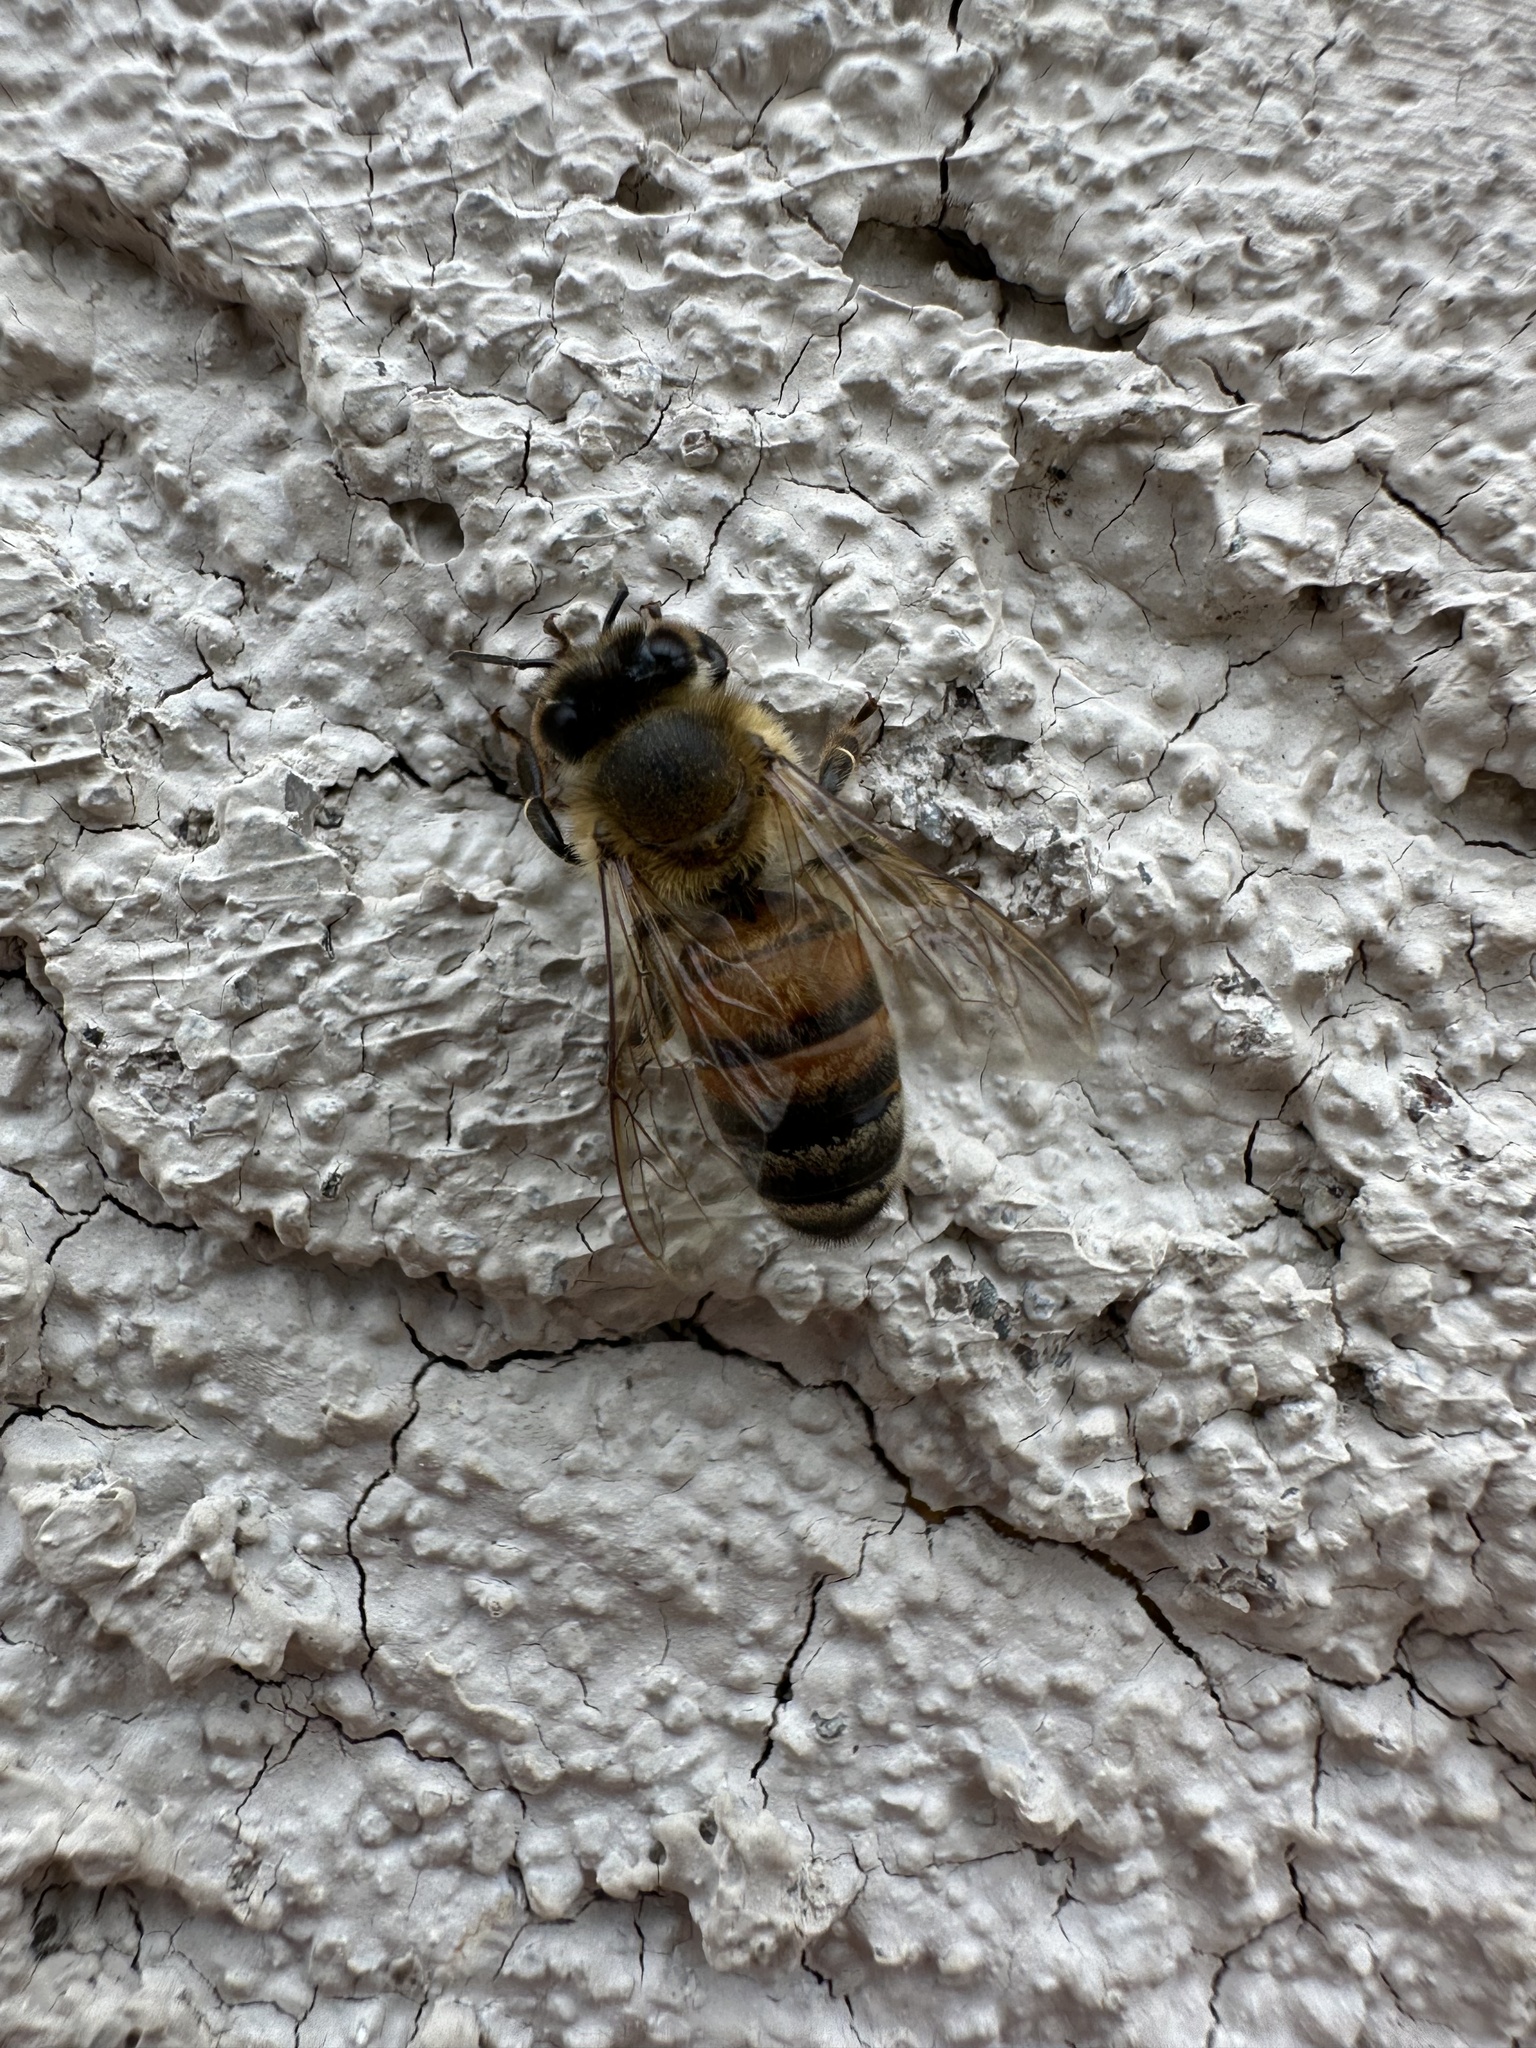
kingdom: Animalia
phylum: Arthropoda
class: Insecta
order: Hymenoptera
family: Apidae
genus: Apis
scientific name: Apis mellifera
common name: Honey bee
